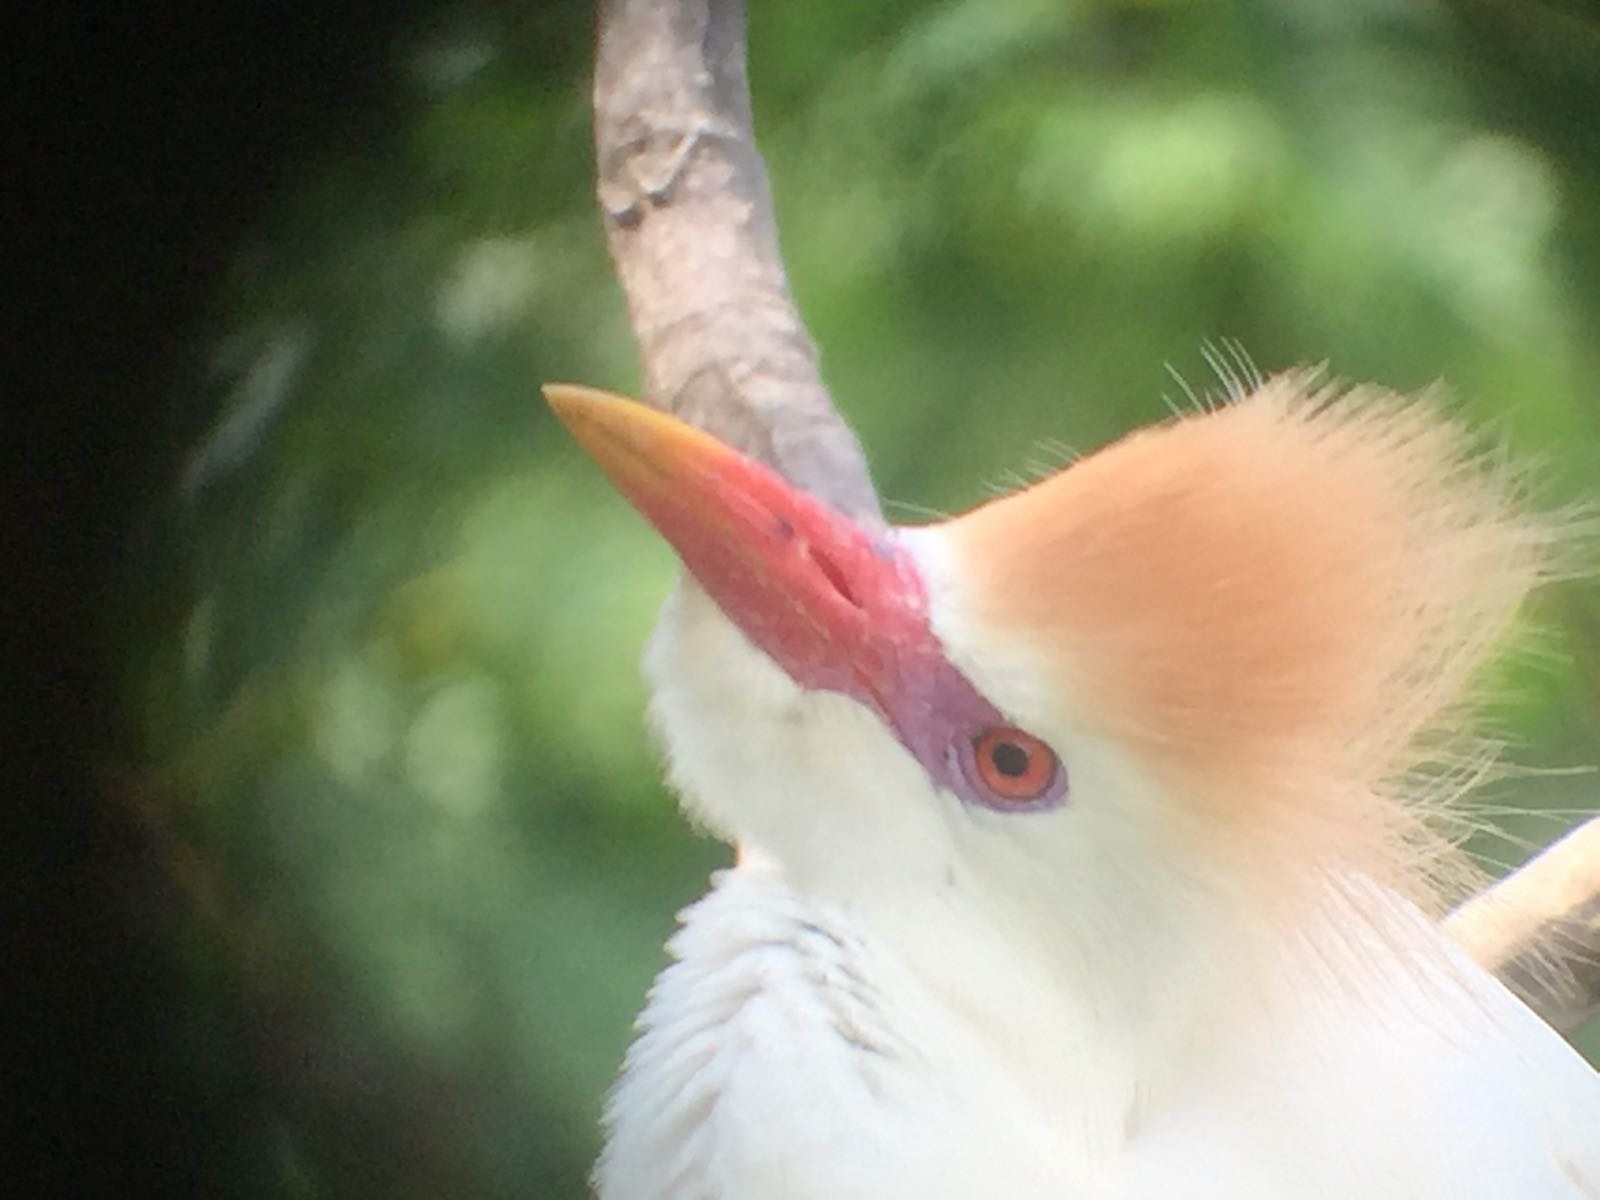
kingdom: Animalia
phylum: Chordata
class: Aves
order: Pelecaniformes
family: Ardeidae
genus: Bubulcus
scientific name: Bubulcus ibis
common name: Cattle egret
